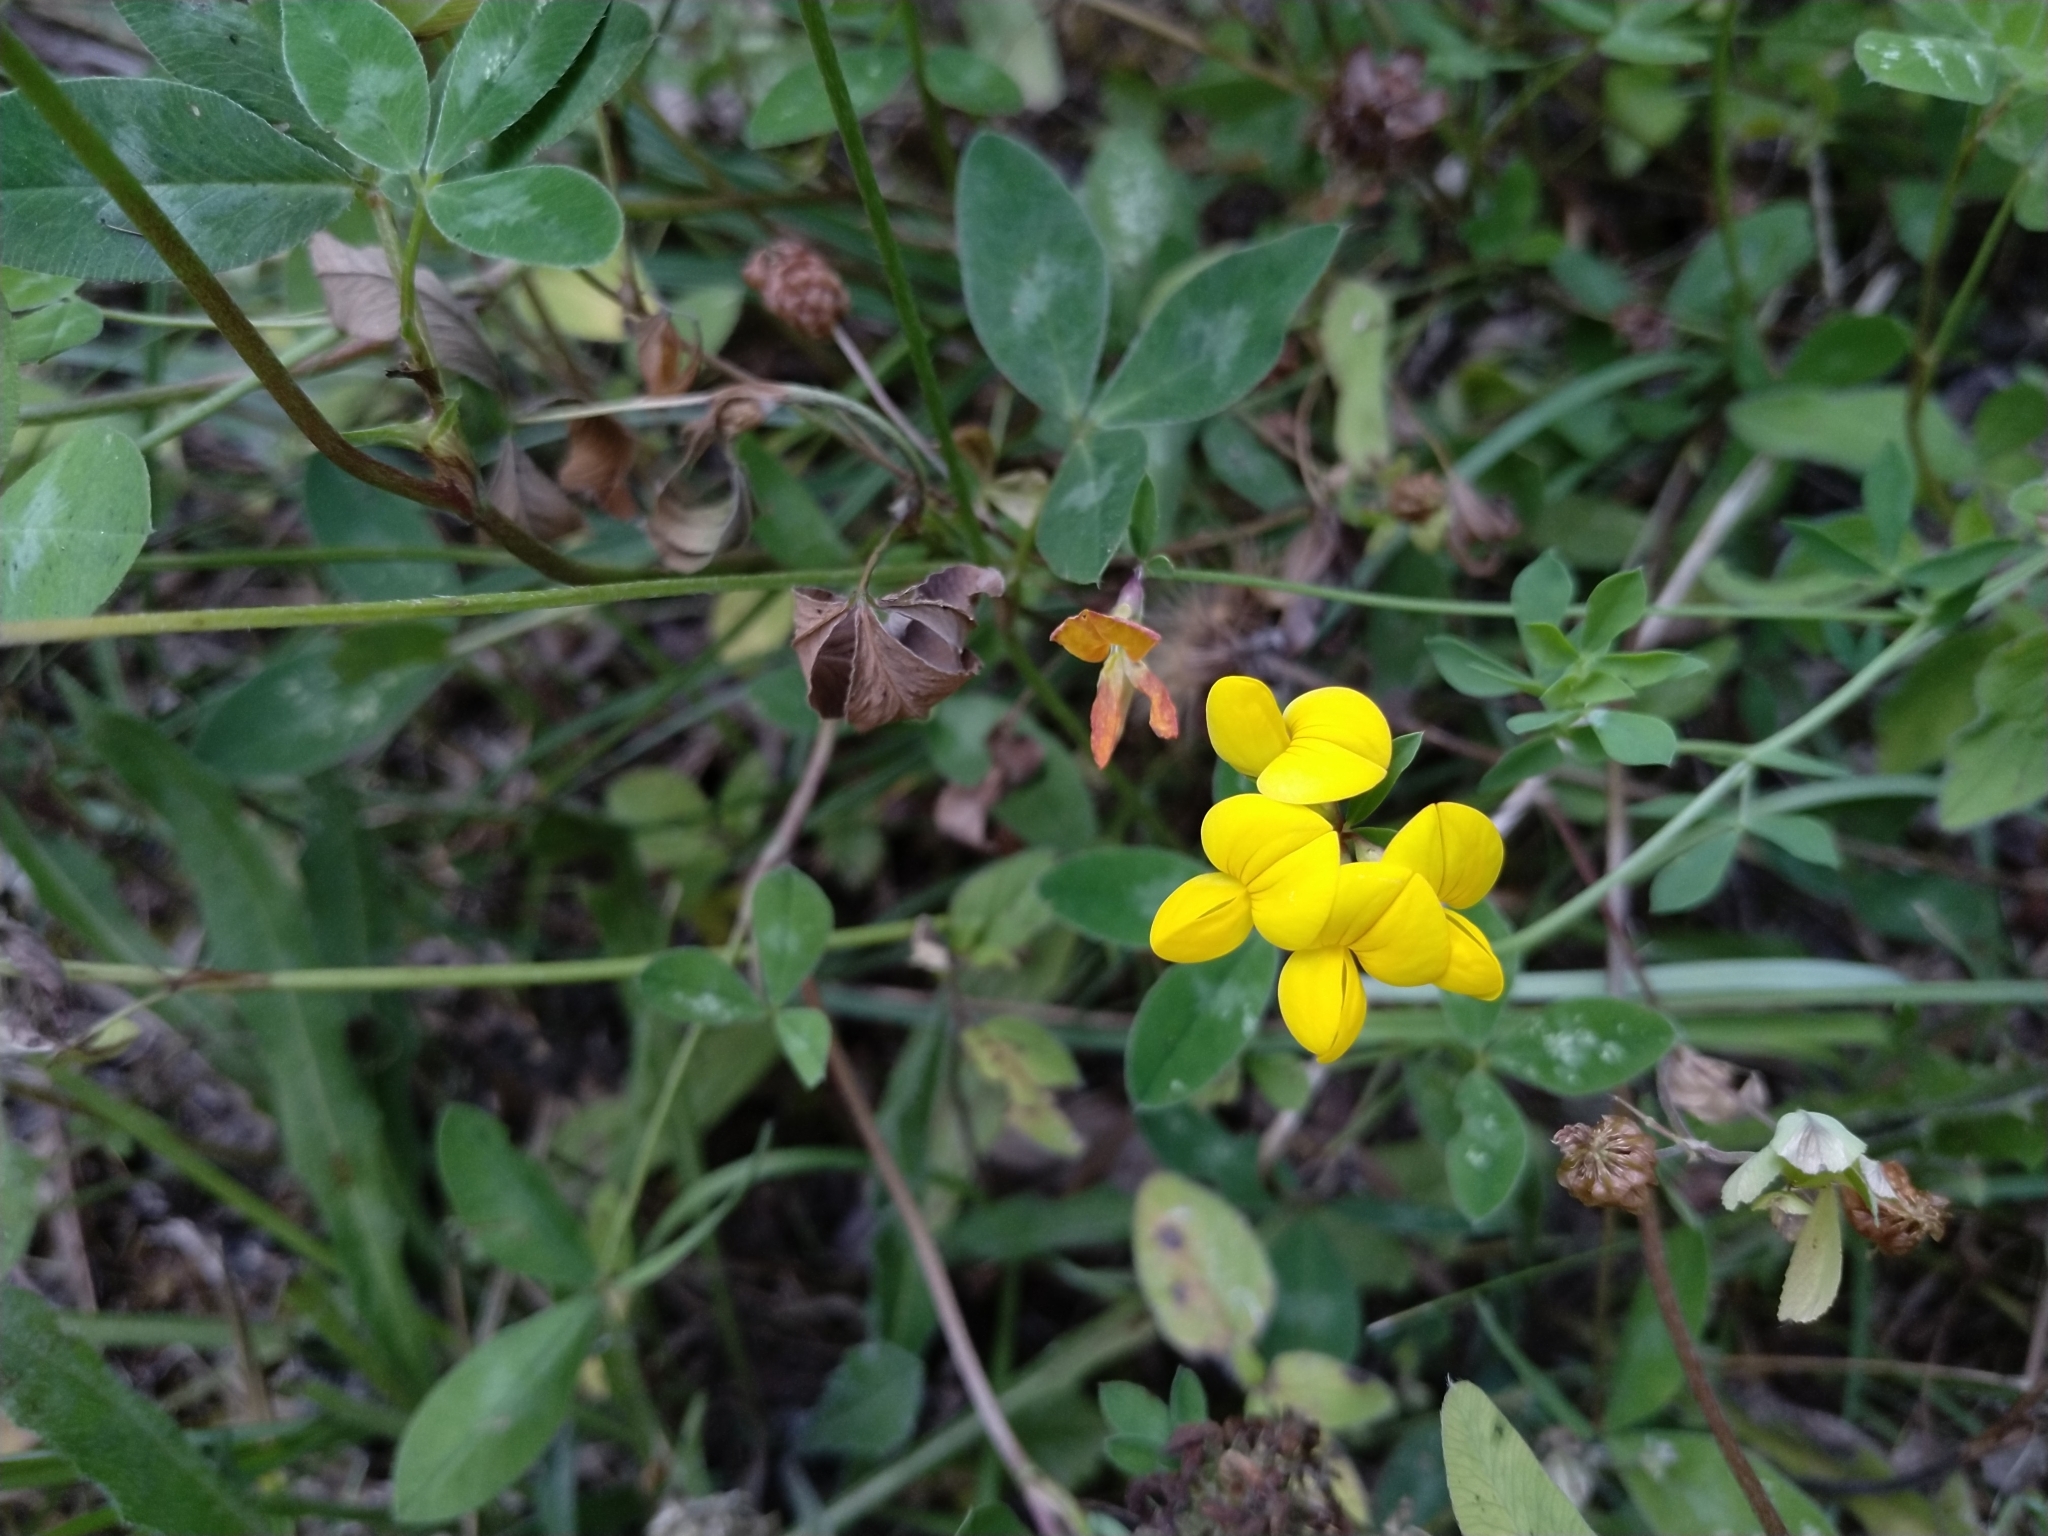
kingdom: Plantae
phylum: Tracheophyta
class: Magnoliopsida
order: Fabales
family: Fabaceae
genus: Lotus
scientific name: Lotus corniculatus
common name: Common bird's-foot-trefoil
